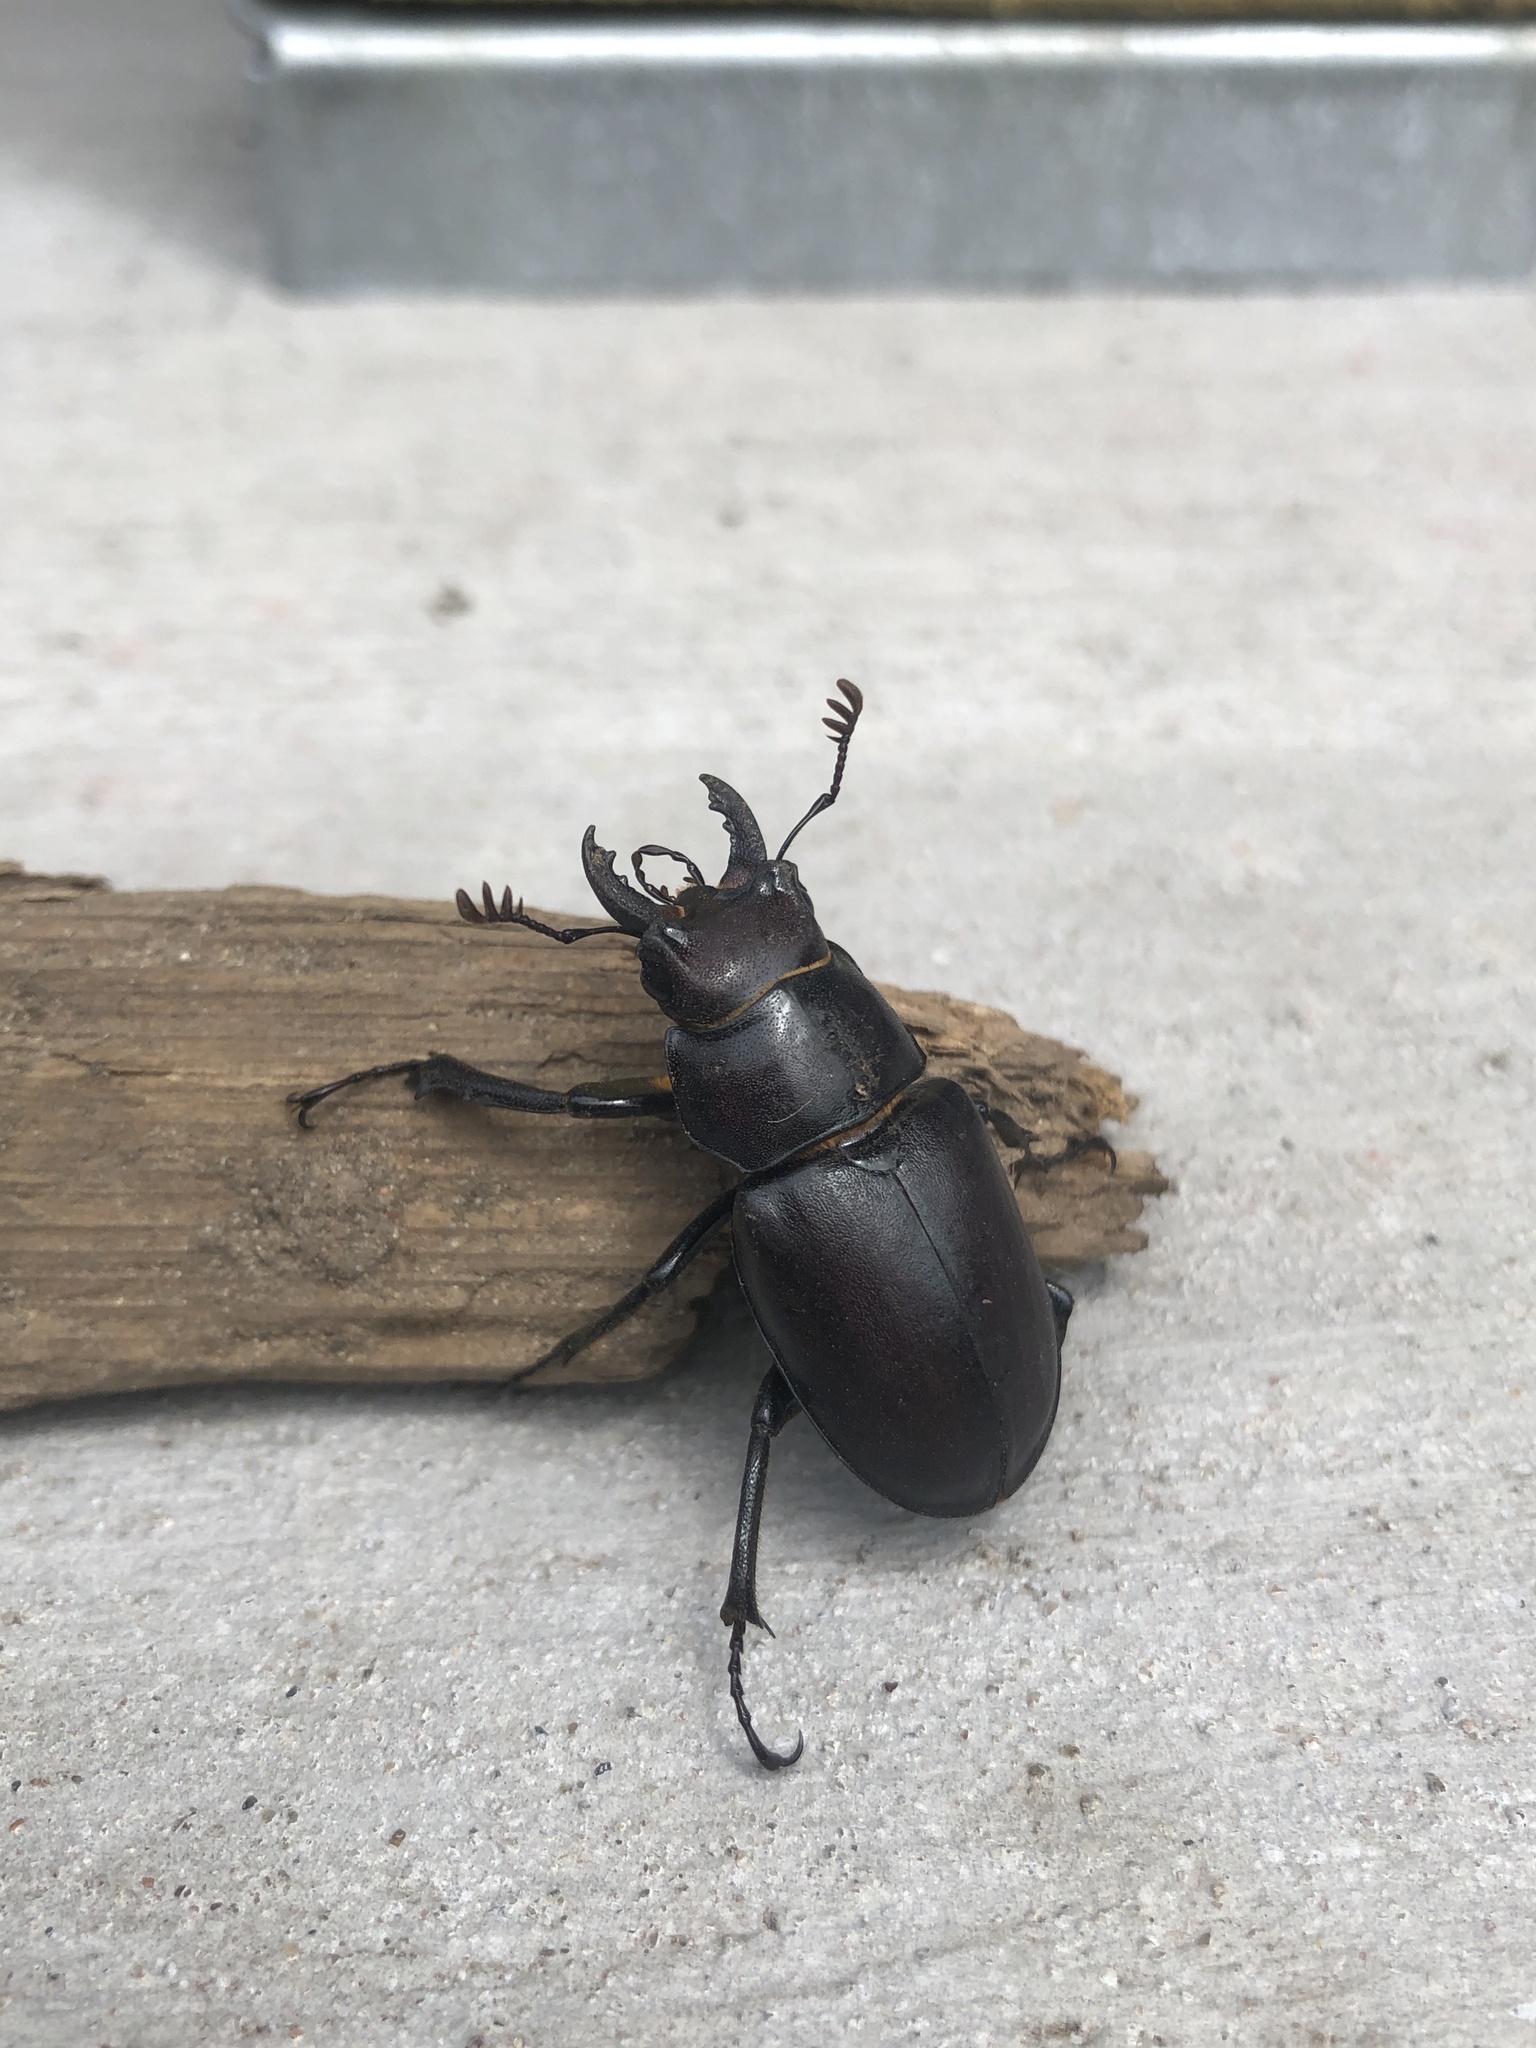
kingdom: Animalia
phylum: Arthropoda
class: Insecta
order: Coleoptera
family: Lucanidae
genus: Lucanus
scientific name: Lucanus placidus
